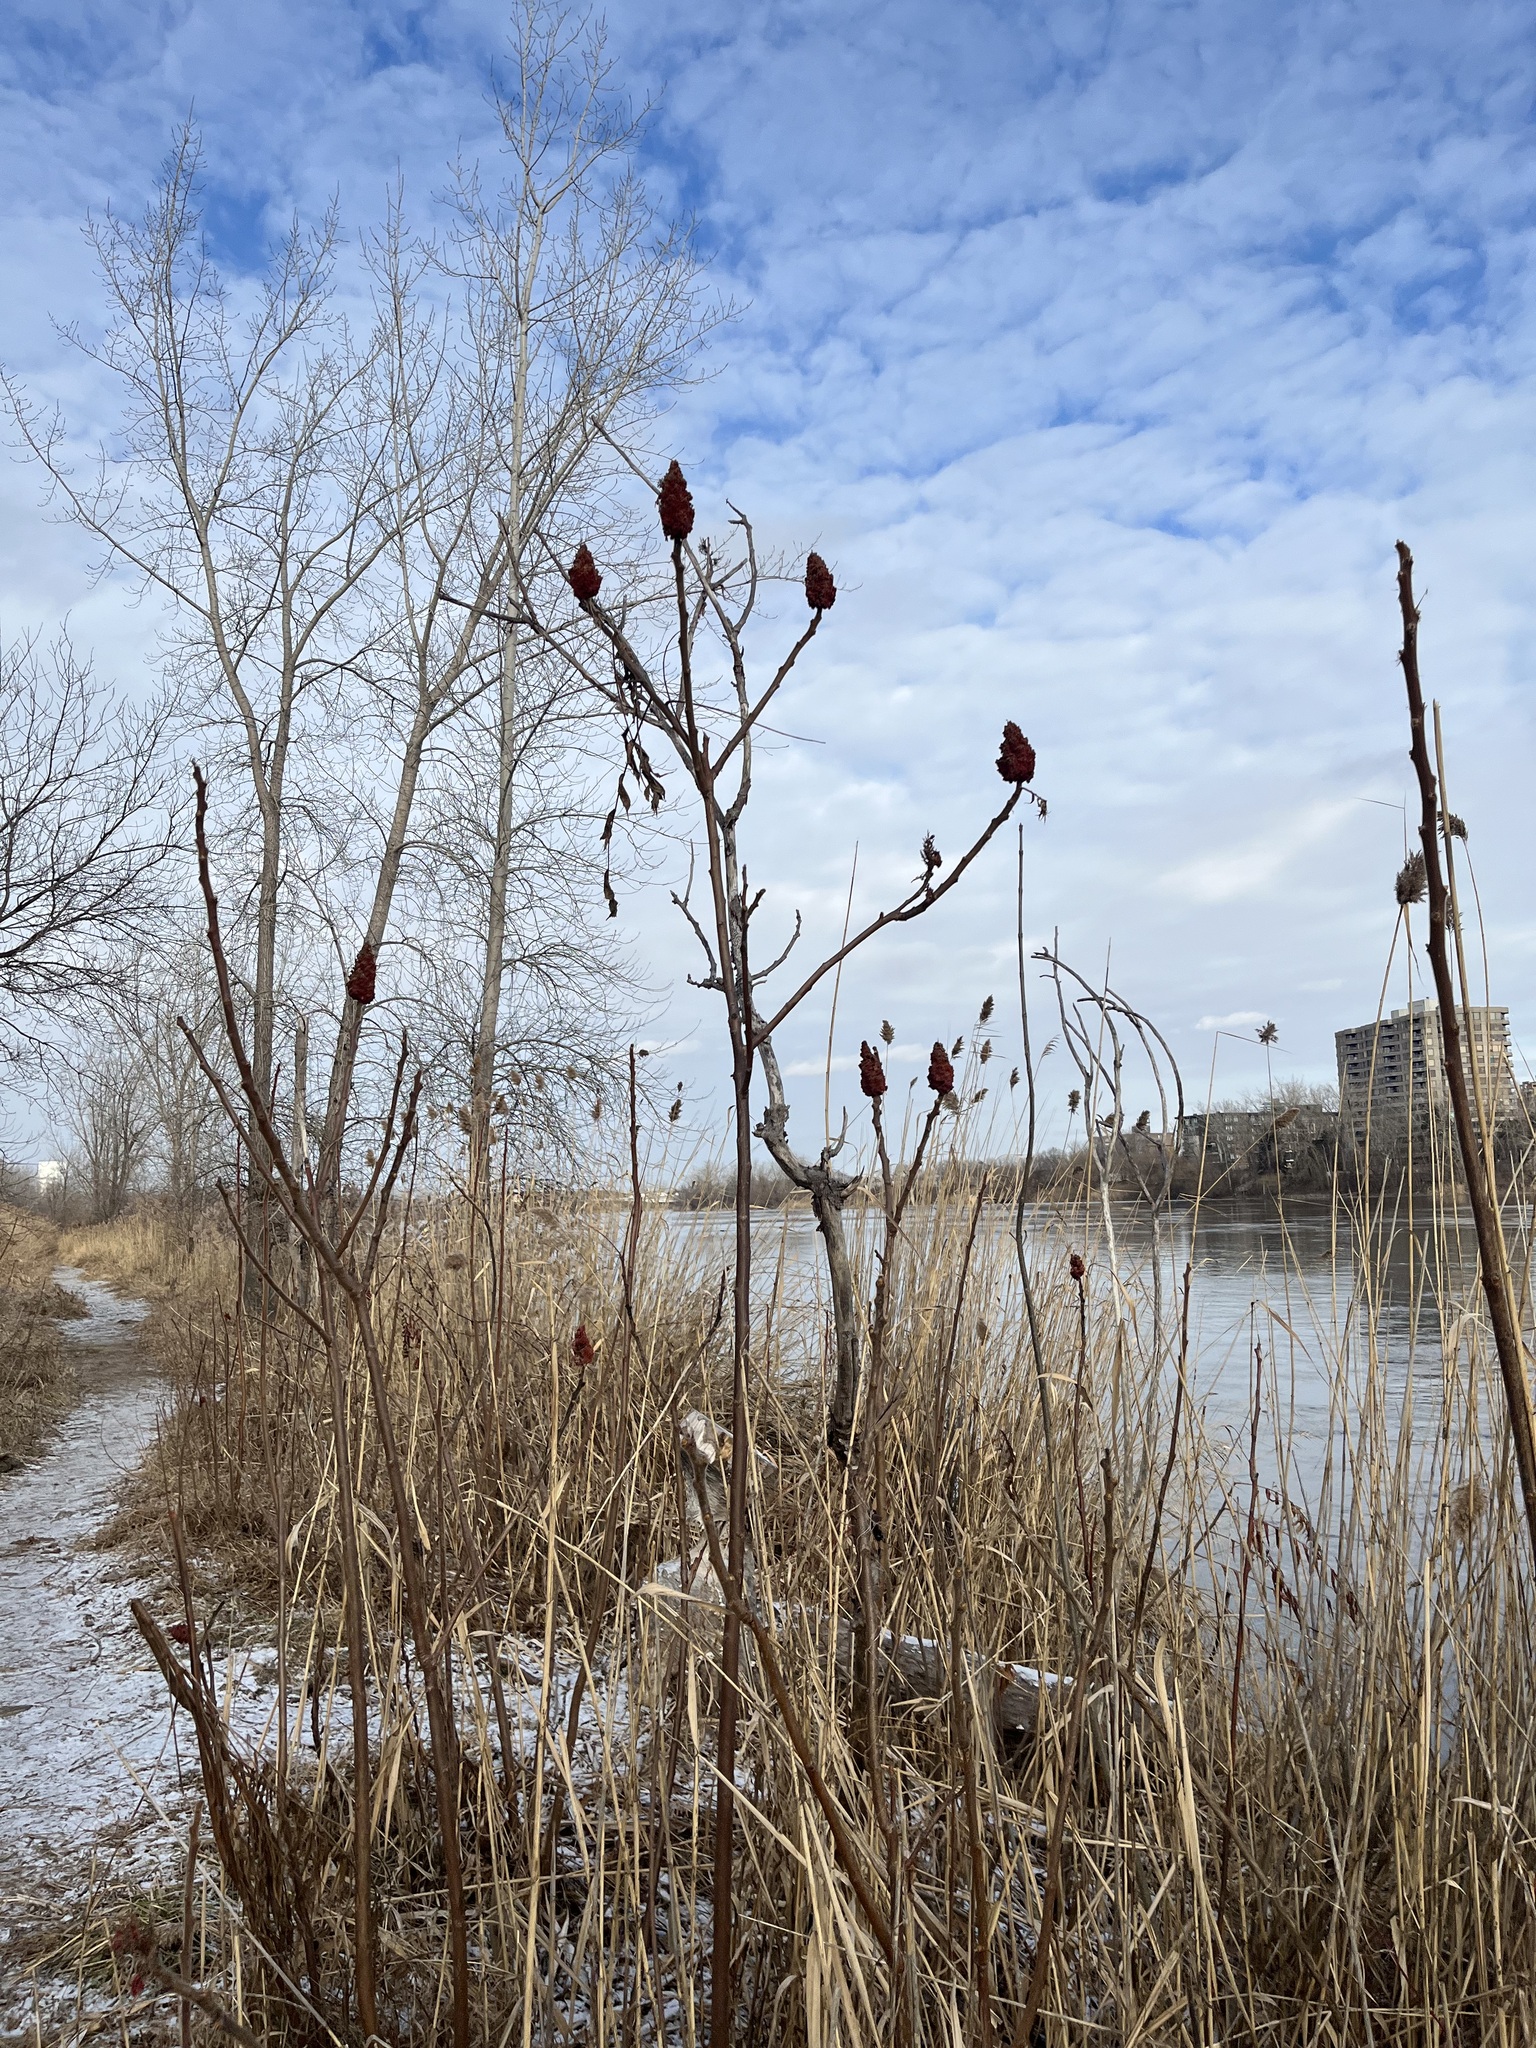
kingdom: Plantae
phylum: Tracheophyta
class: Magnoliopsida
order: Sapindales
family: Anacardiaceae
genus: Rhus
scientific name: Rhus typhina
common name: Staghorn sumac
